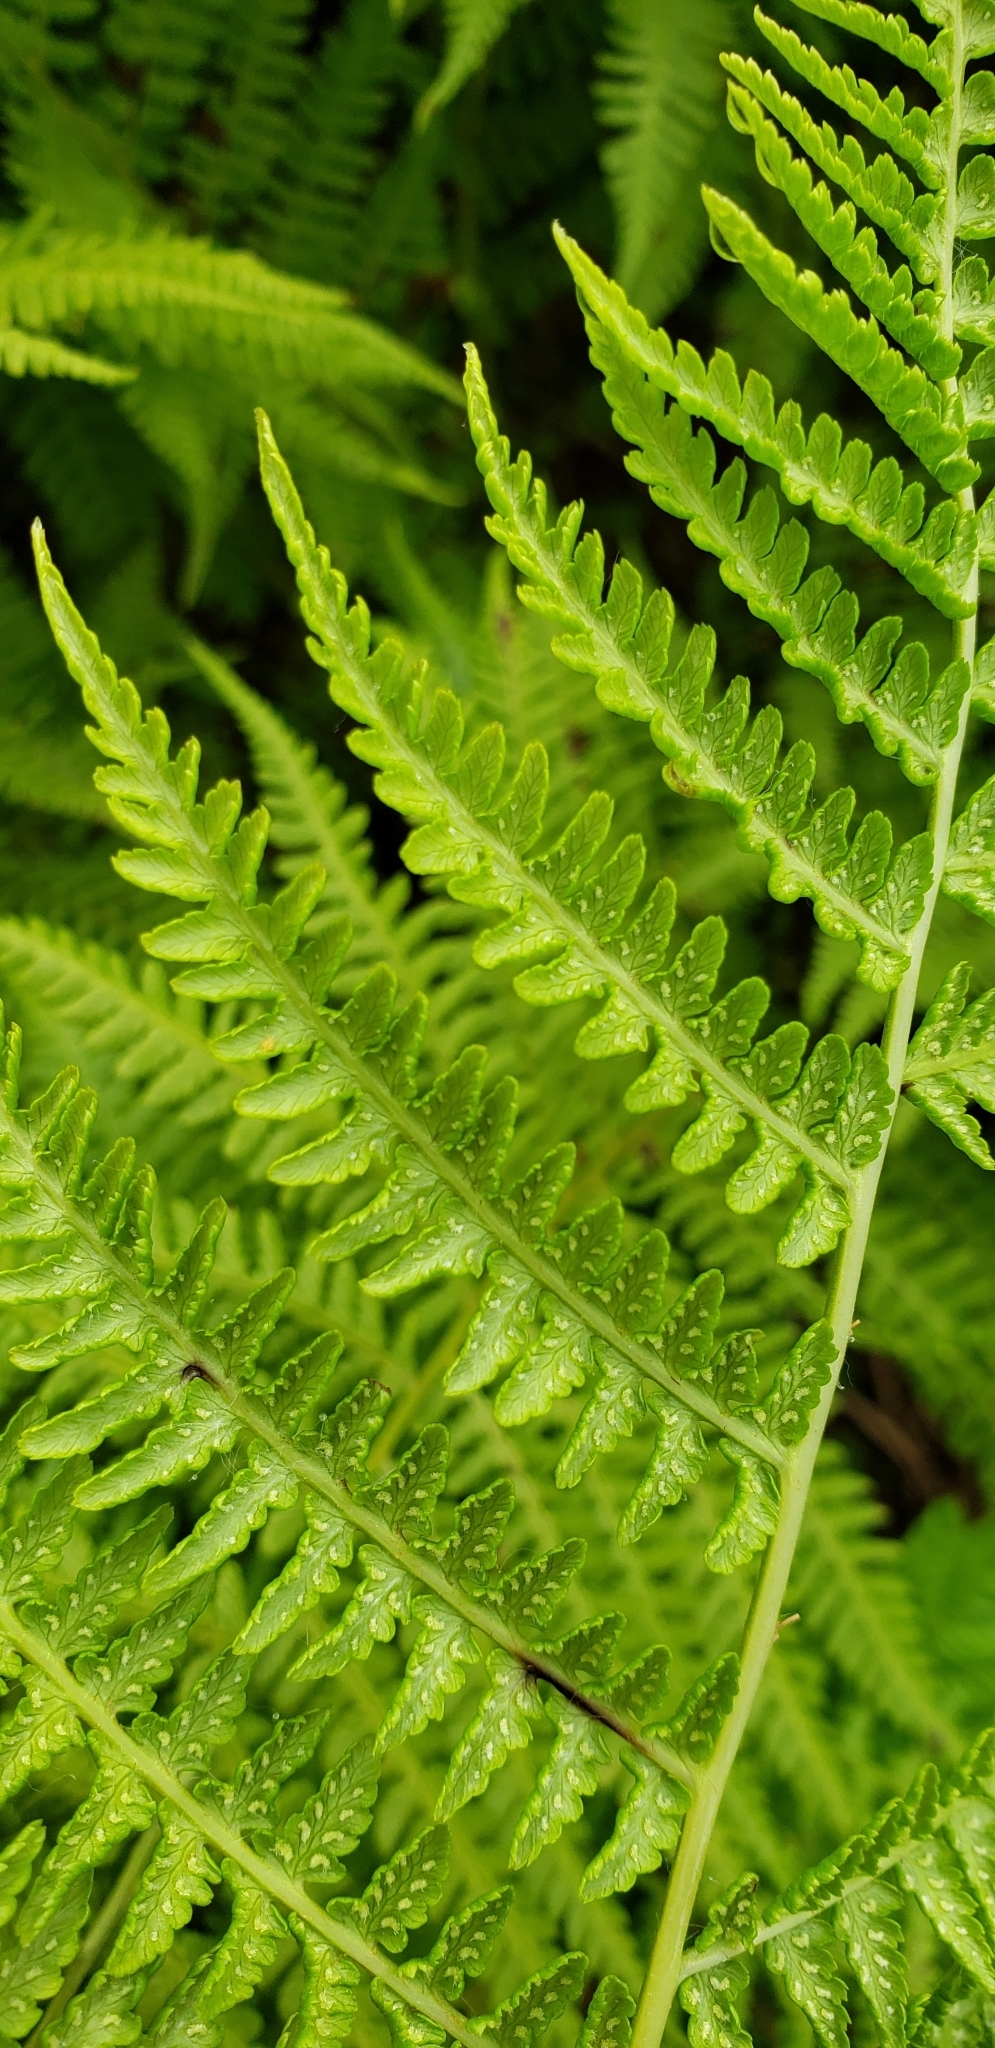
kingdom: Plantae
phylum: Tracheophyta
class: Polypodiopsida
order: Polypodiales
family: Athyriaceae
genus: Athyrium
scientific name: Athyrium filix-femina
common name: Lady fern
